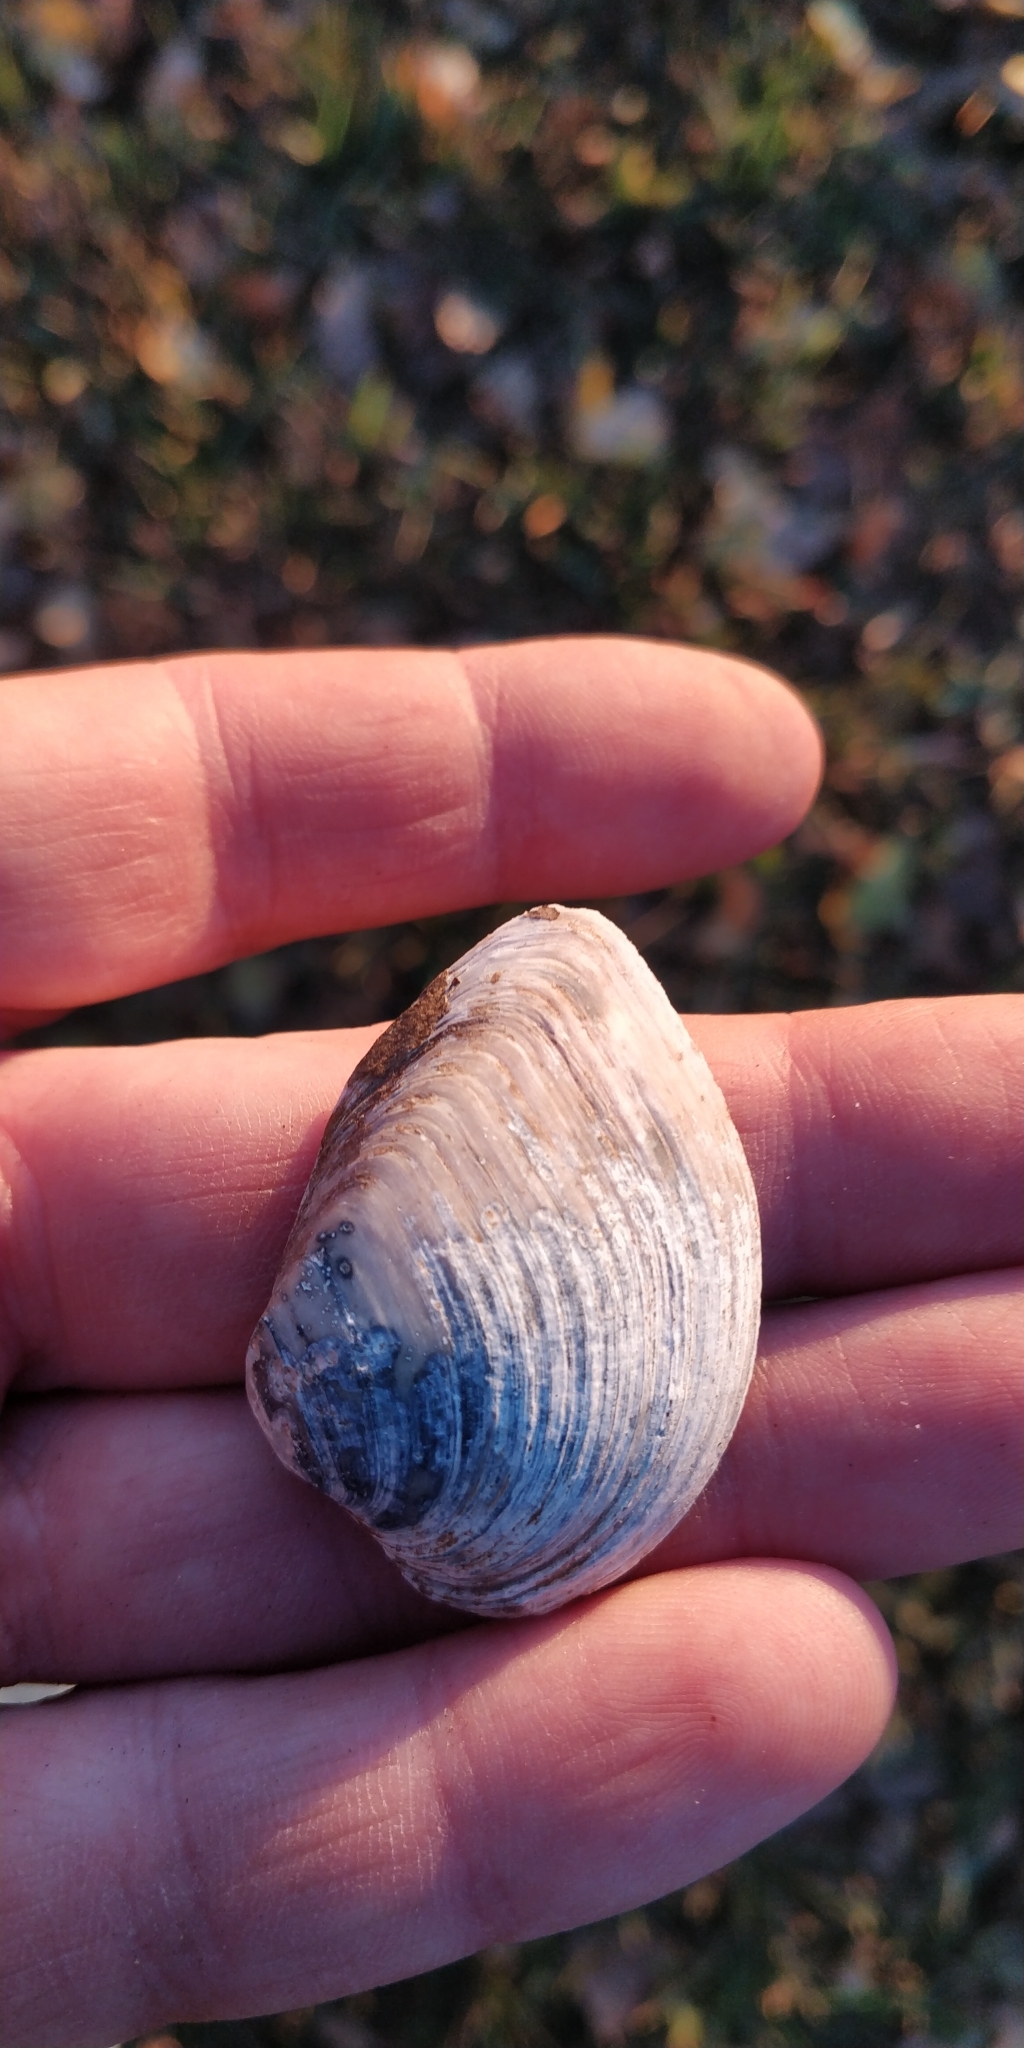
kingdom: Animalia
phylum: Mollusca
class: Bivalvia
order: Unionida
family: Unionidae
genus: Truncilla
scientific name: Truncilla truncata
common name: Deertoe
